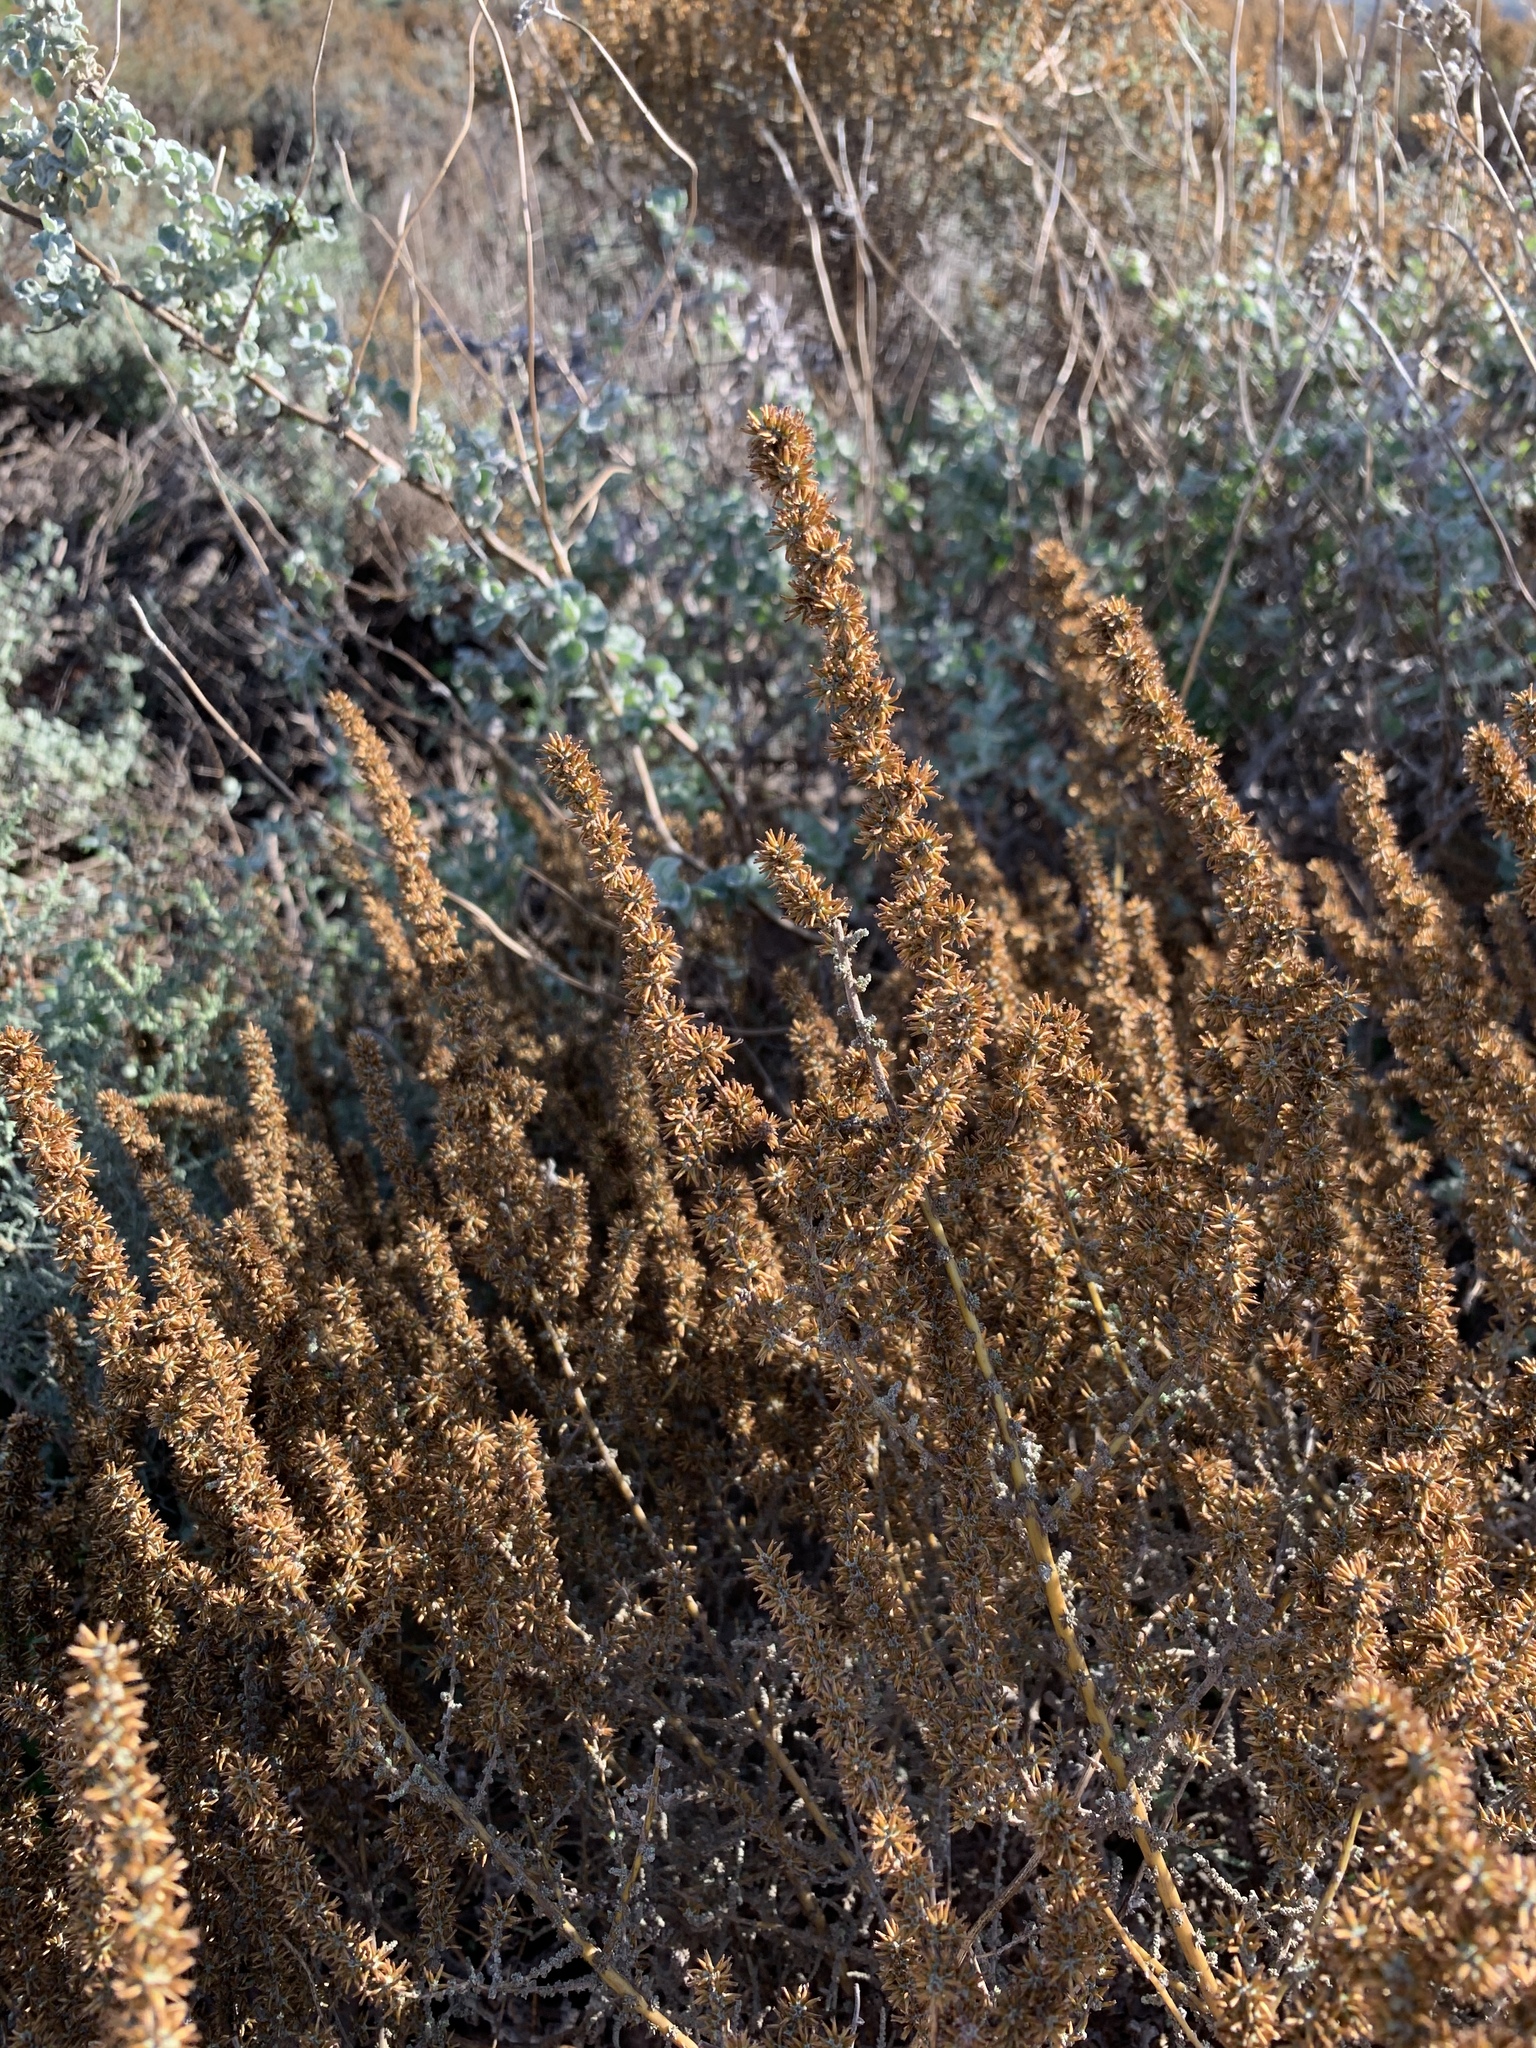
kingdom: Plantae
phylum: Tracheophyta
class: Magnoliopsida
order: Asterales
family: Asteraceae
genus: Seriphium
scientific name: Seriphium plumosum
